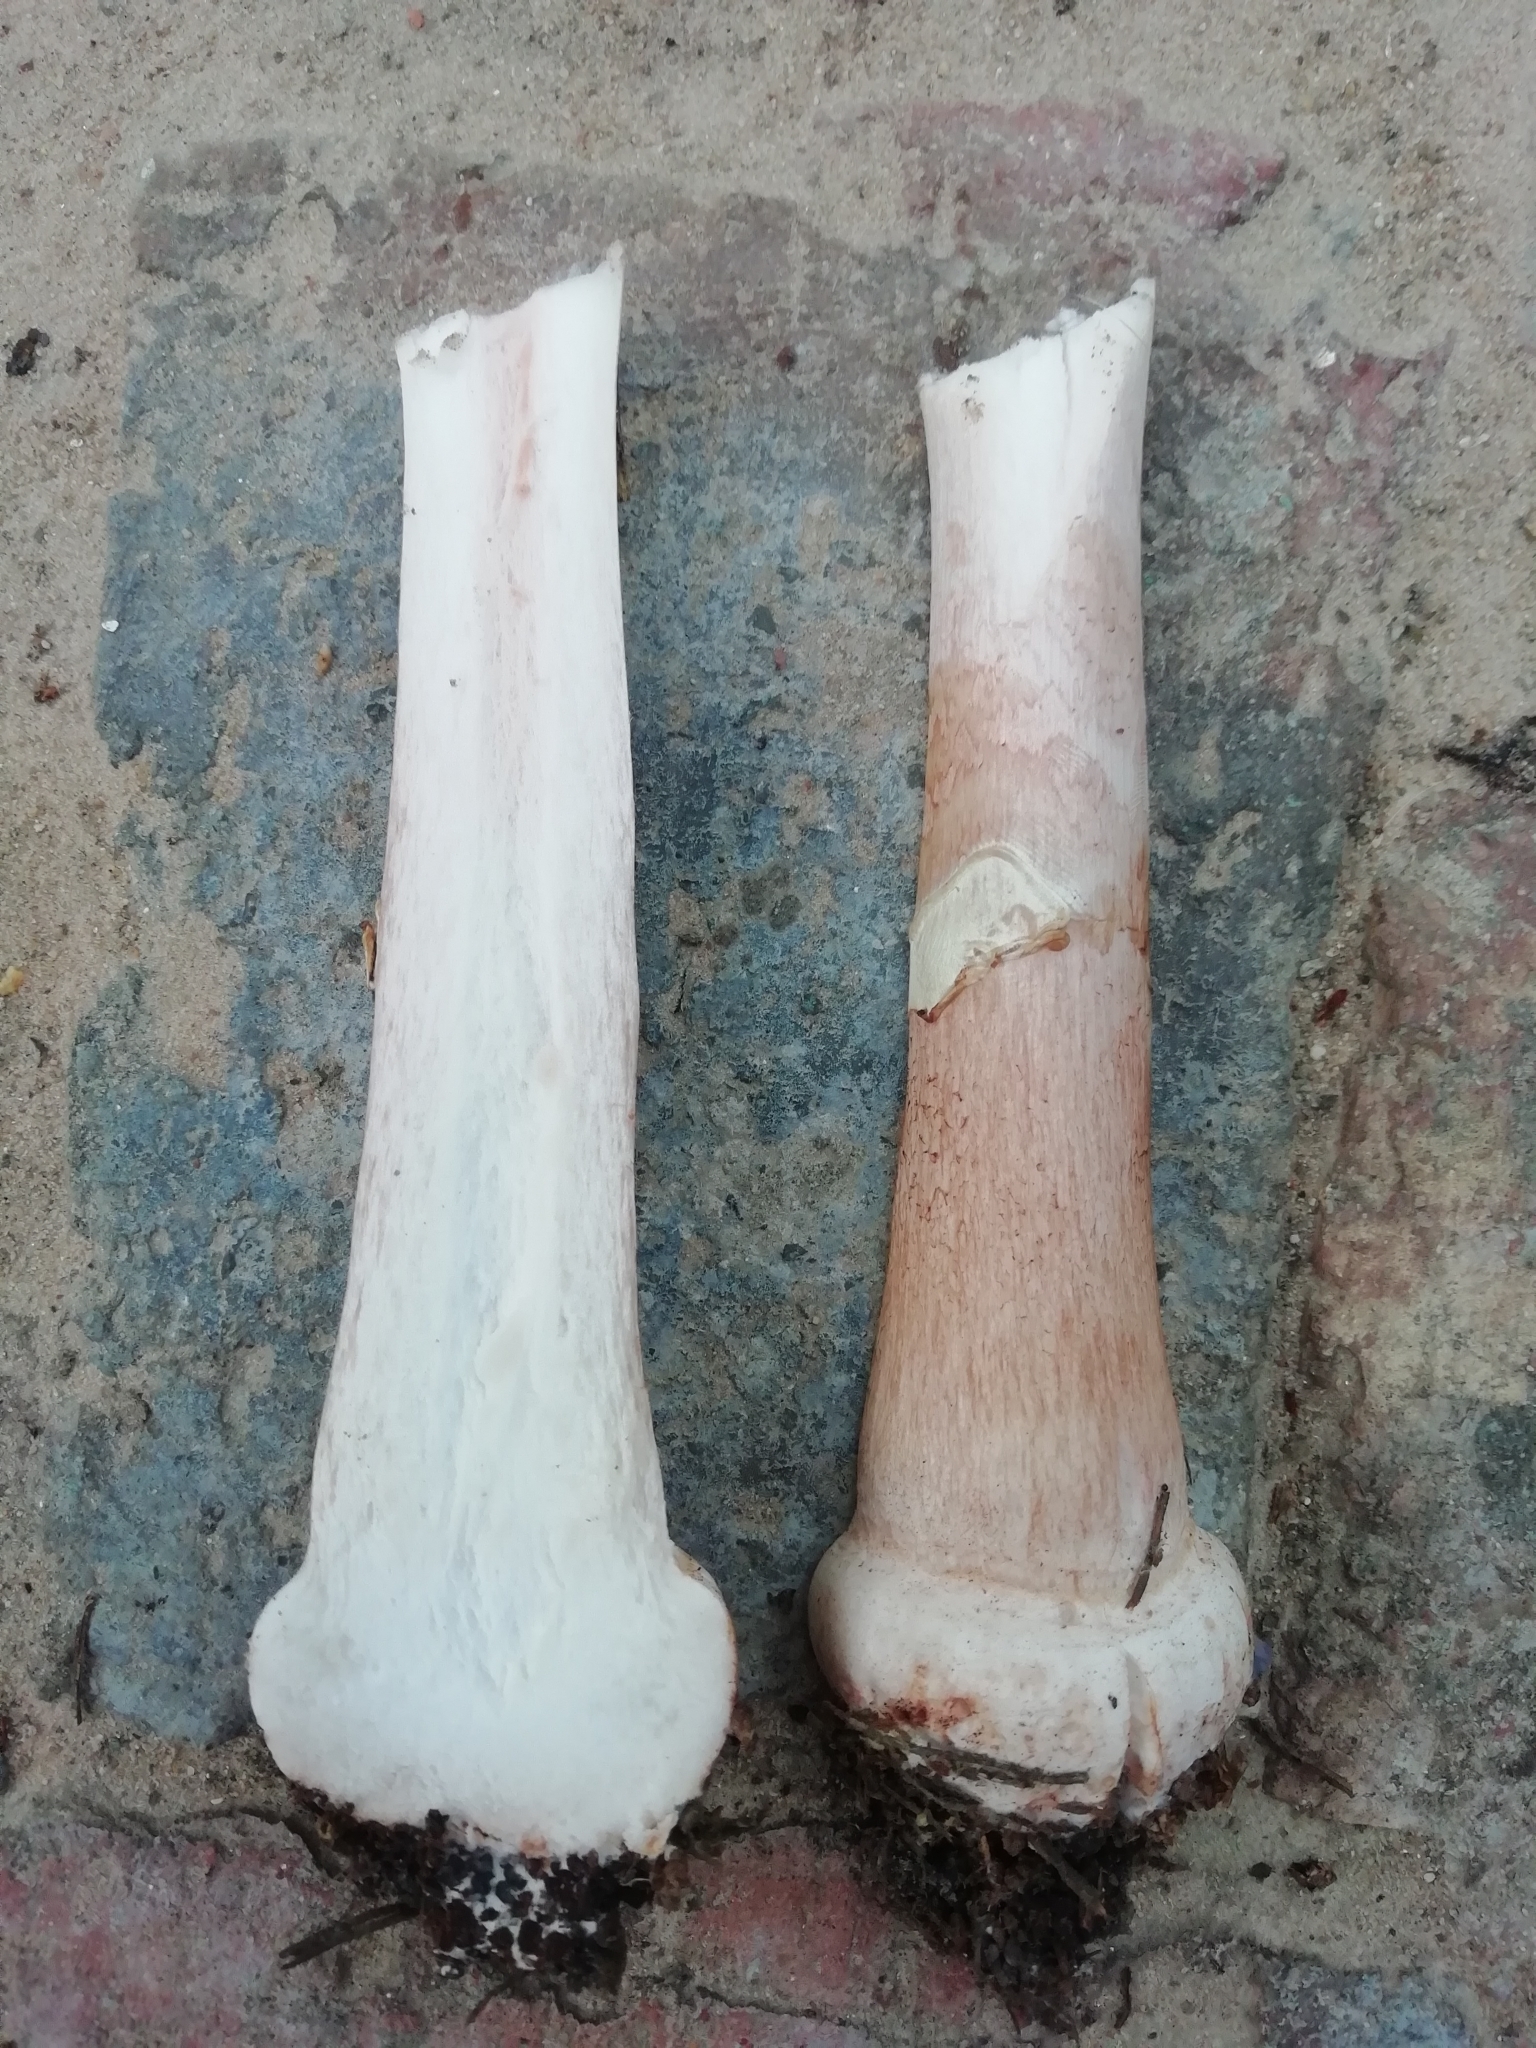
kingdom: Fungi
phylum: Basidiomycota
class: Agaricomycetes
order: Agaricales
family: Amanitaceae
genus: Amanita
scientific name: Amanita pantherina
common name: Panthercap
